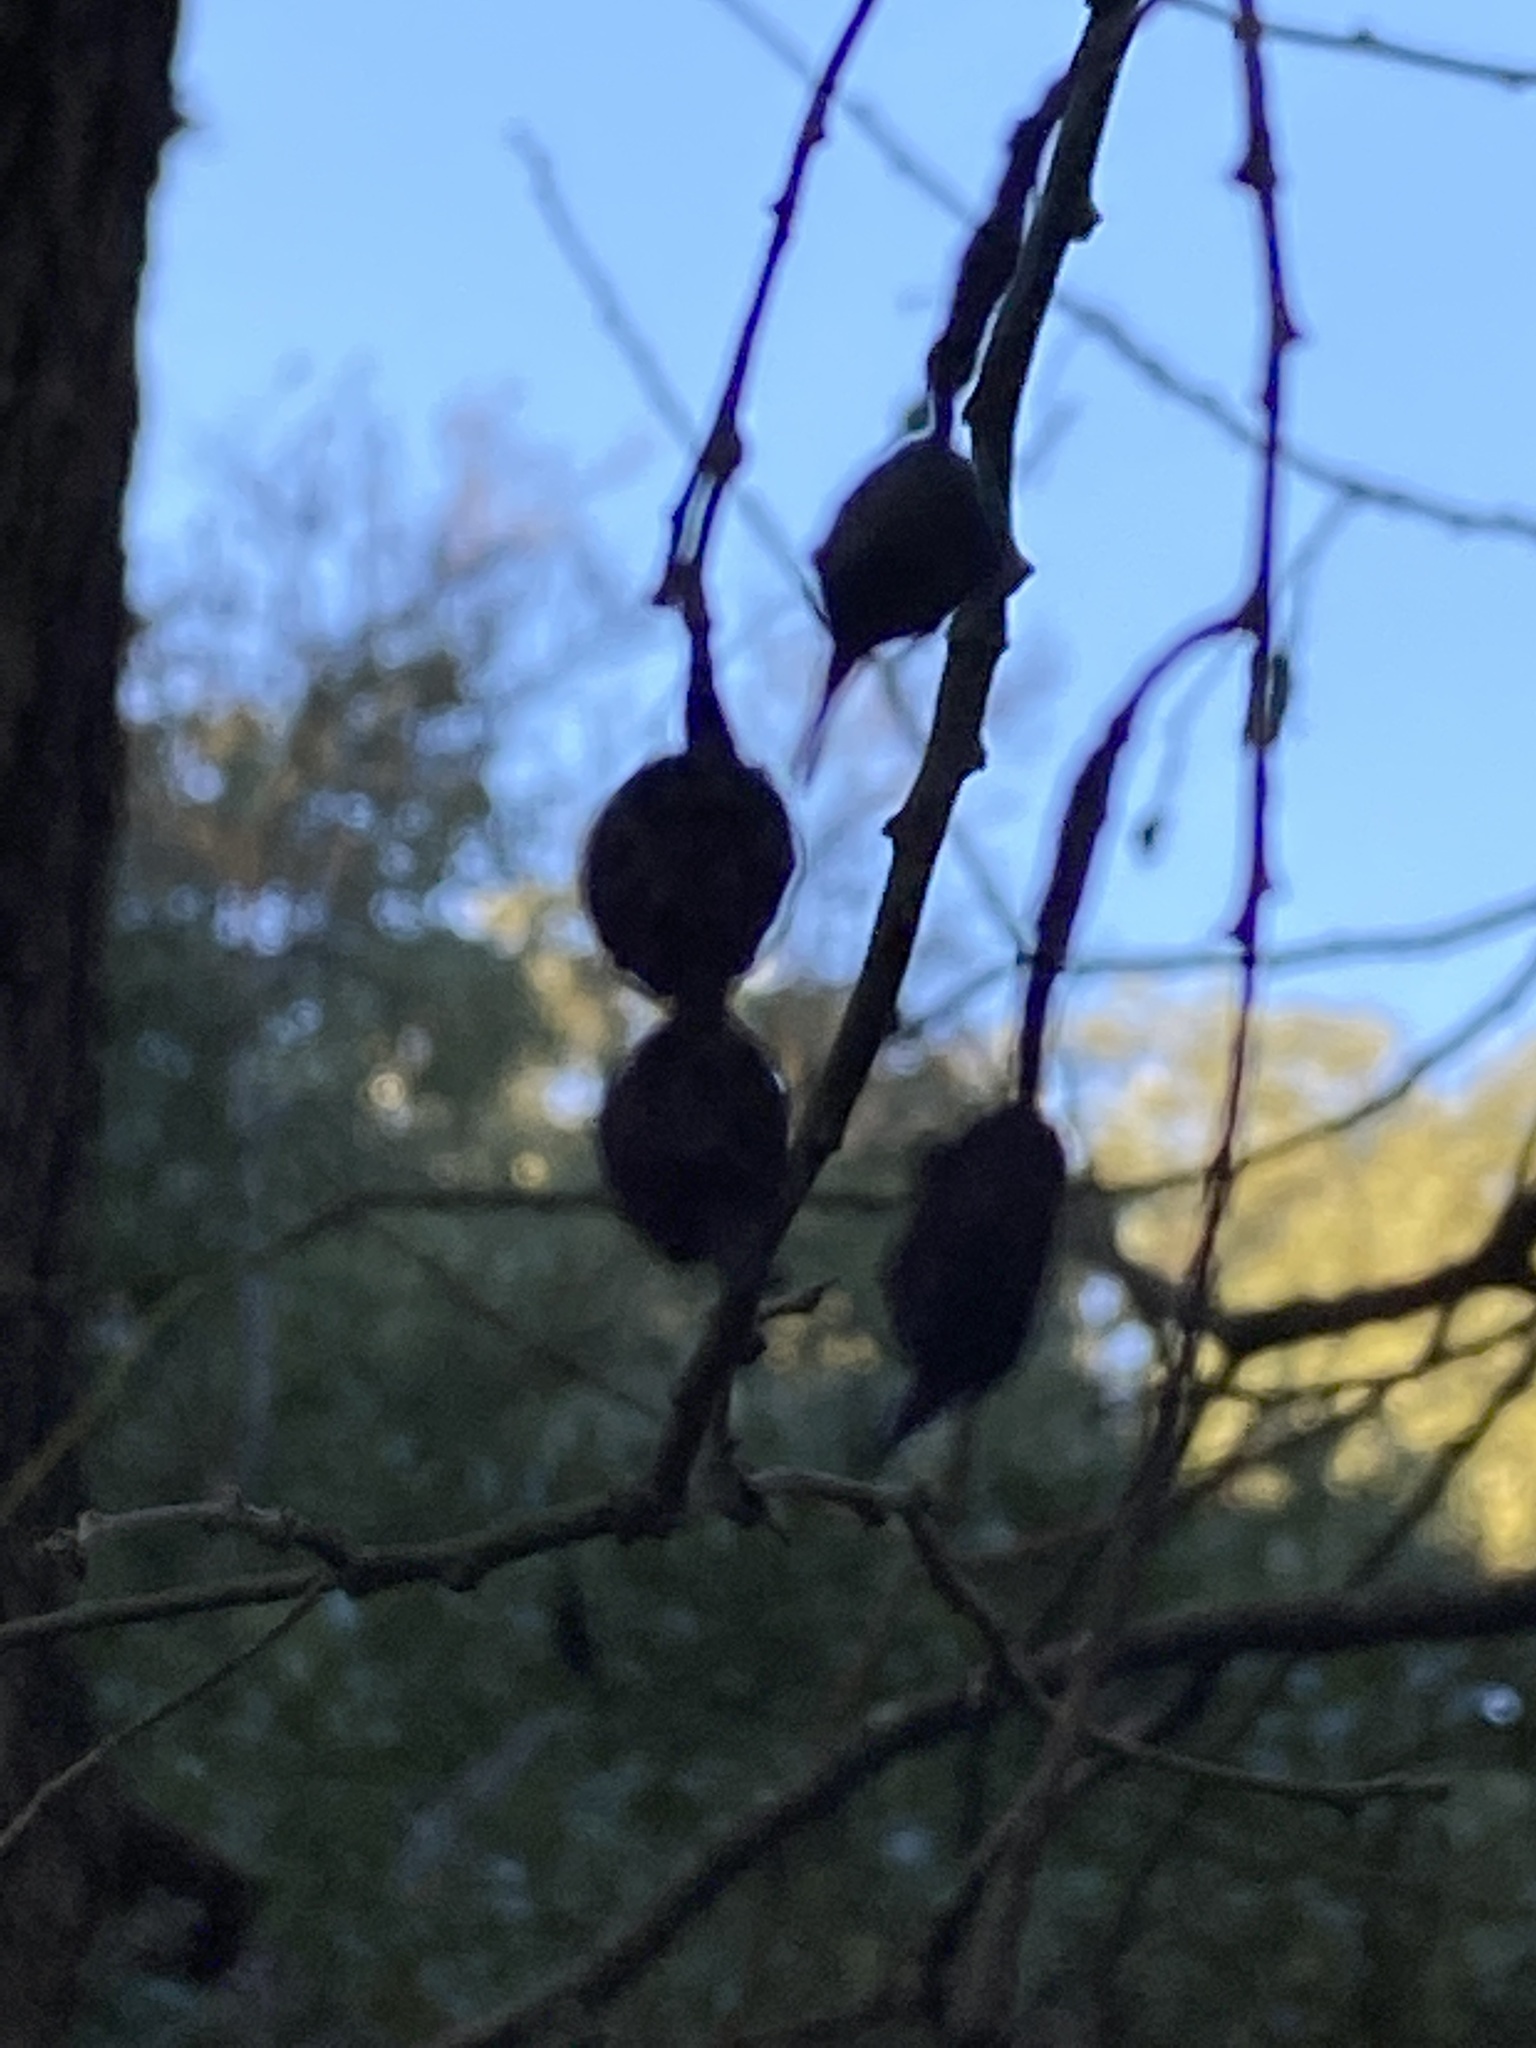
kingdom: Plantae
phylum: Tracheophyta
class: Magnoliopsida
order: Fabales
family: Fabaceae
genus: Styphnolobium
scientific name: Styphnolobium affine
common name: Texas sophora
